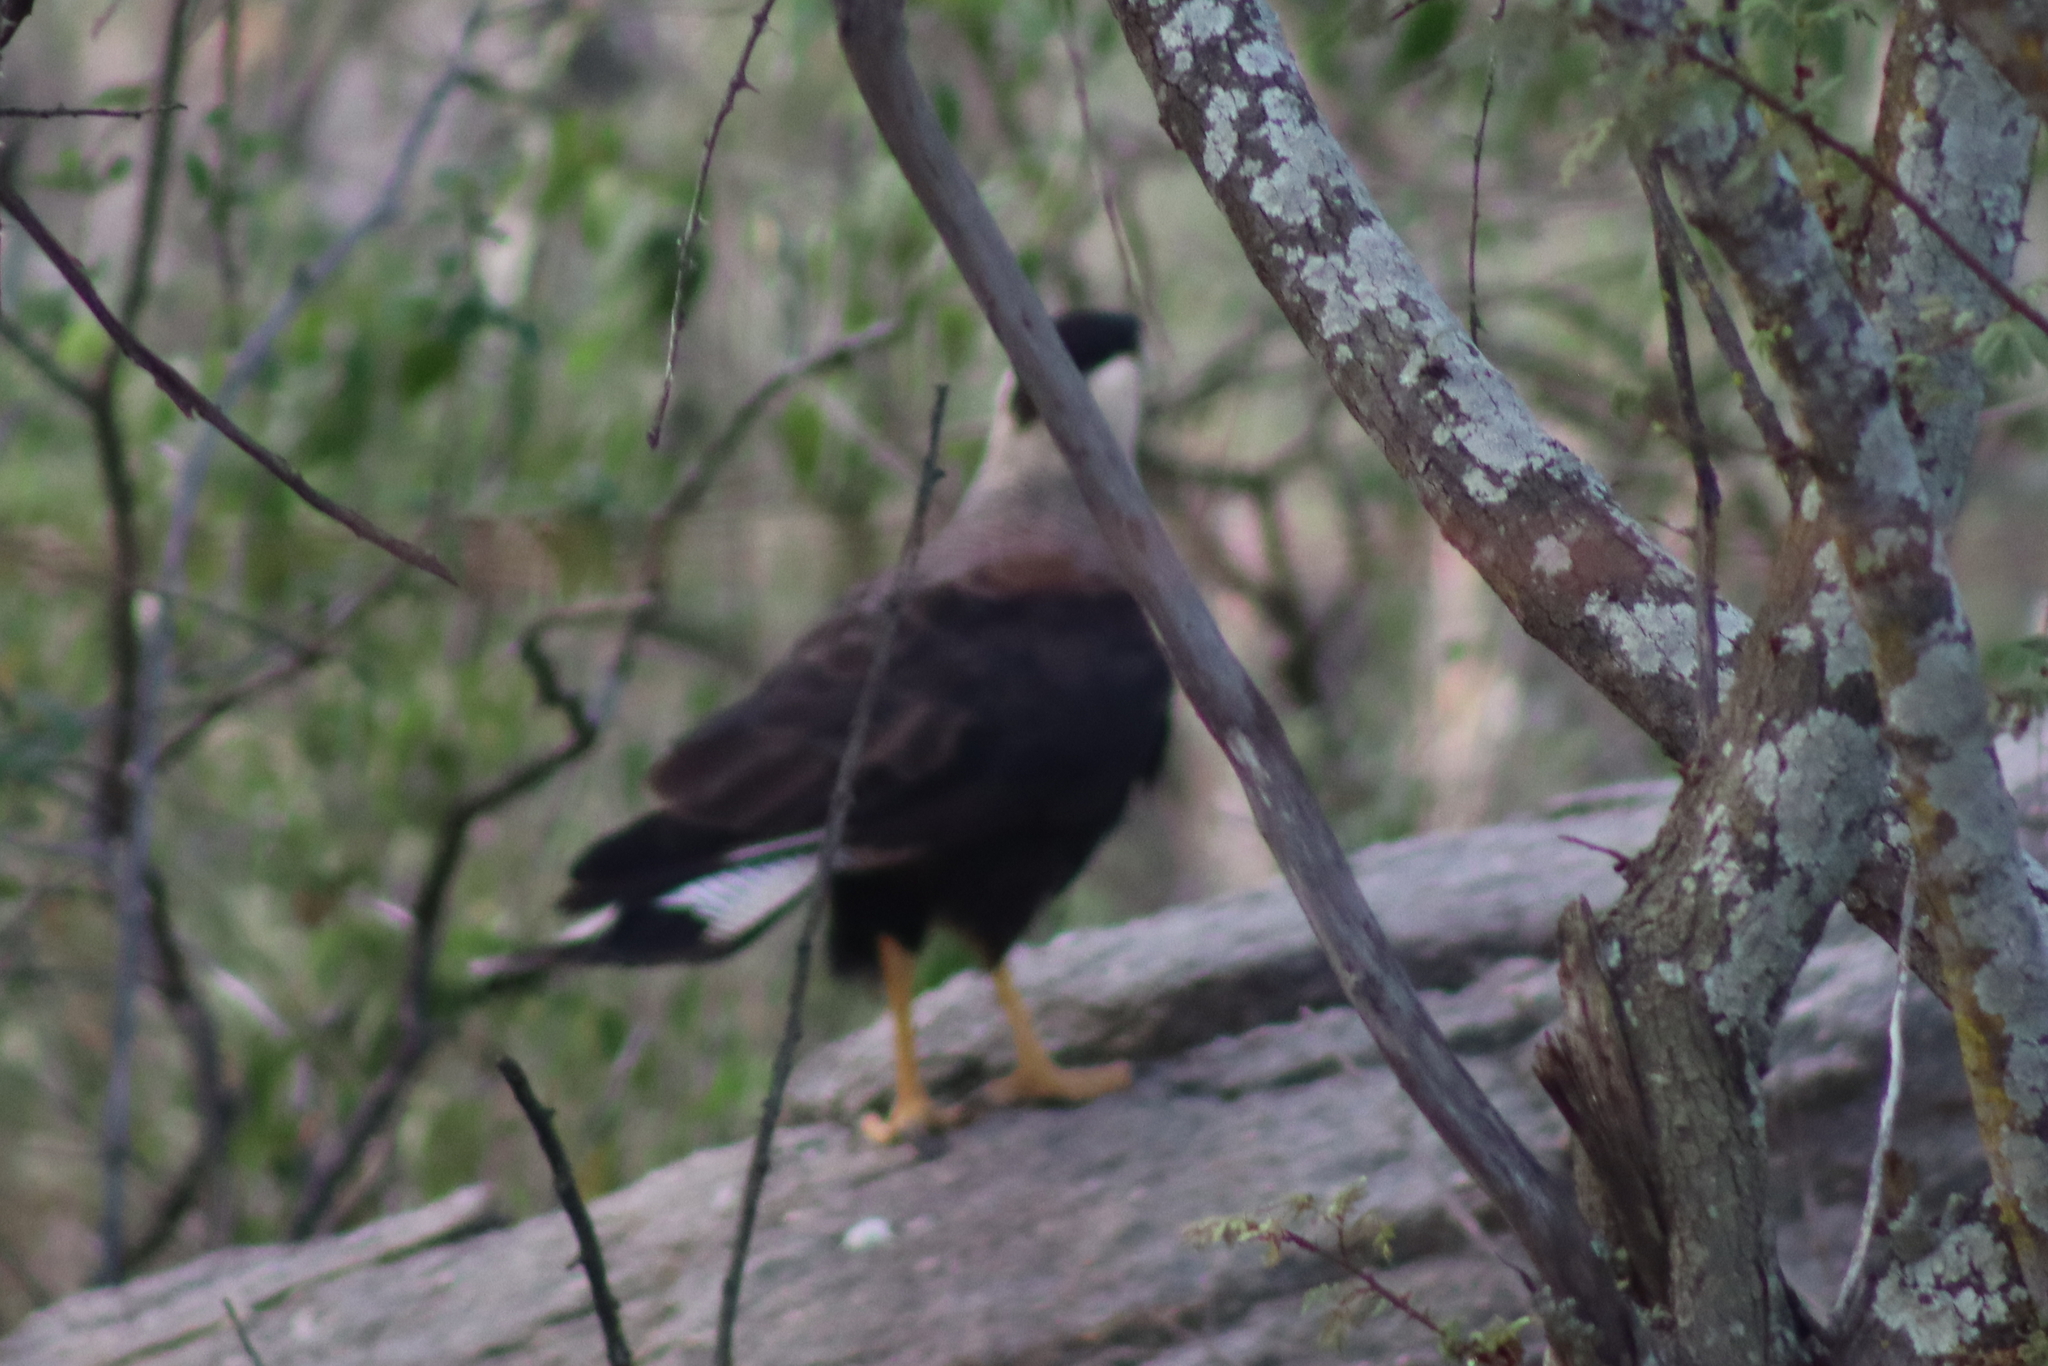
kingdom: Animalia
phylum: Chordata
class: Aves
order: Falconiformes
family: Falconidae
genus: Caracara
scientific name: Caracara plancus
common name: Southern caracara
